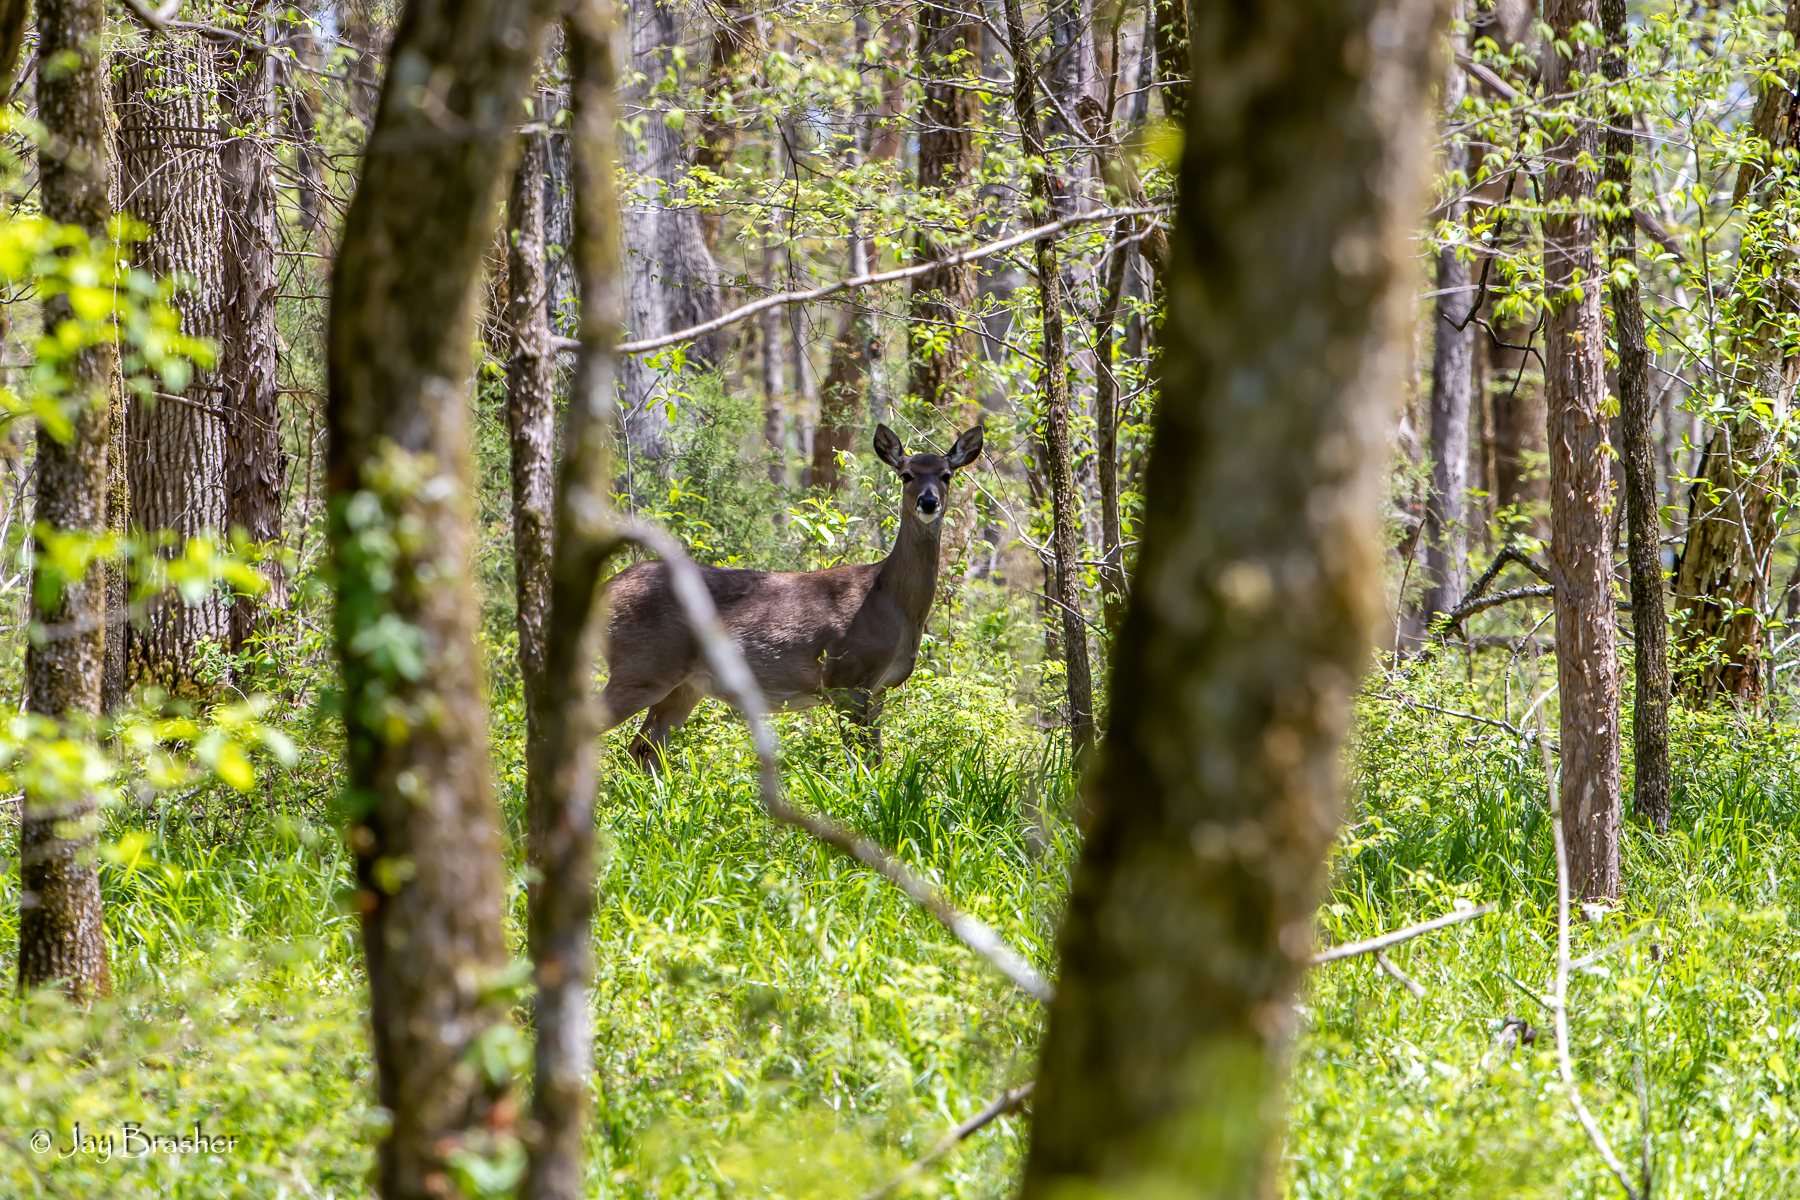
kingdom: Animalia
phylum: Chordata
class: Mammalia
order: Artiodactyla
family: Cervidae
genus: Odocoileus
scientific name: Odocoileus virginianus
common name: White-tailed deer
